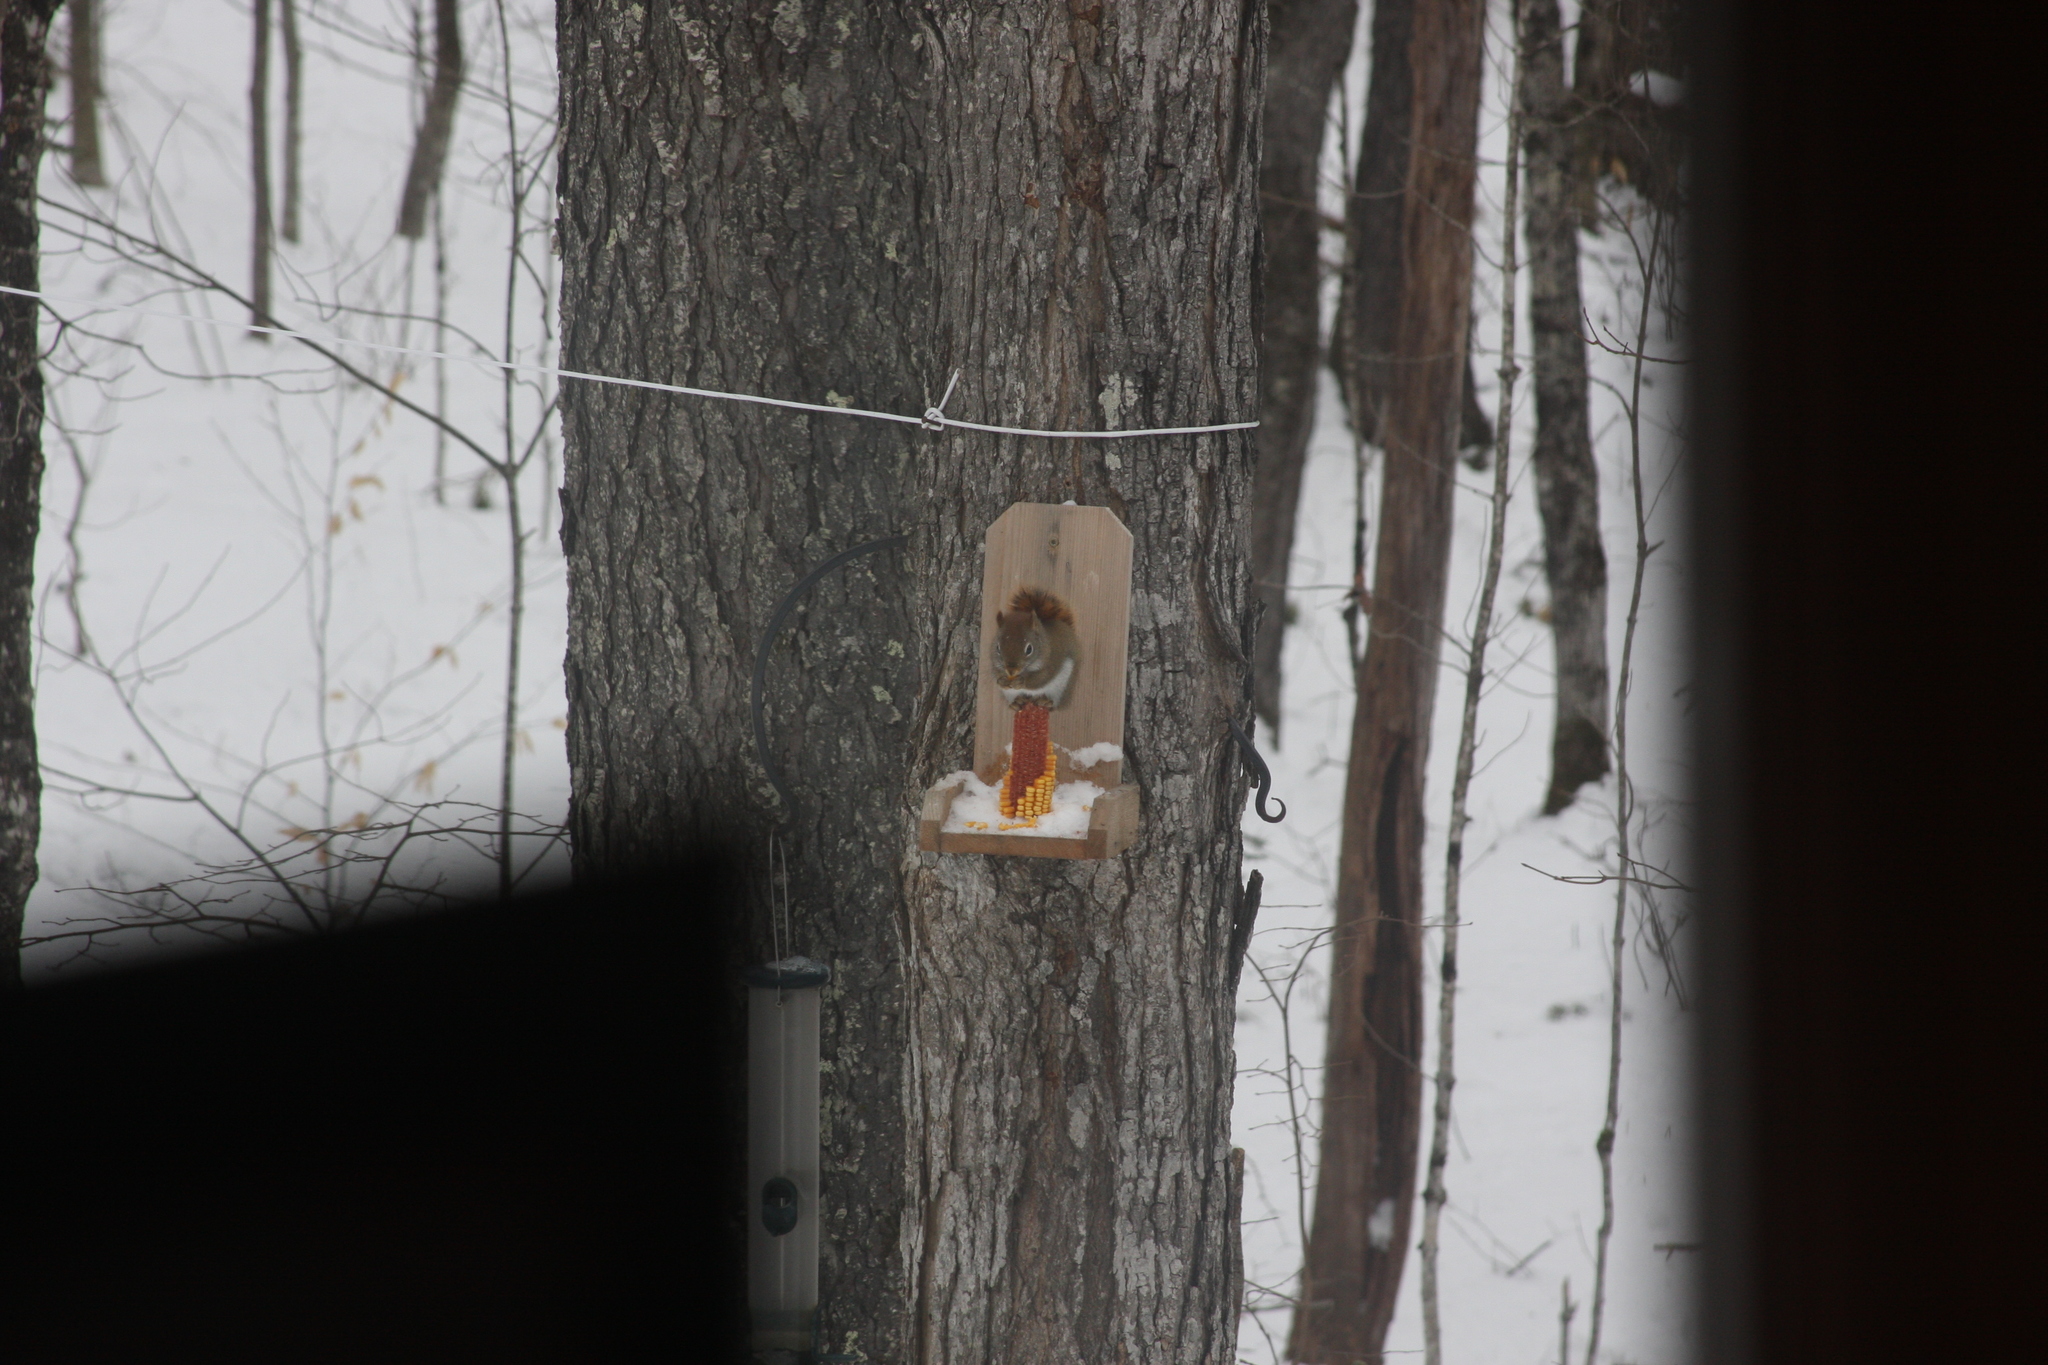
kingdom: Animalia
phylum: Chordata
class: Mammalia
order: Rodentia
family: Sciuridae
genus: Tamiasciurus
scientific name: Tamiasciurus hudsonicus
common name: Red squirrel
